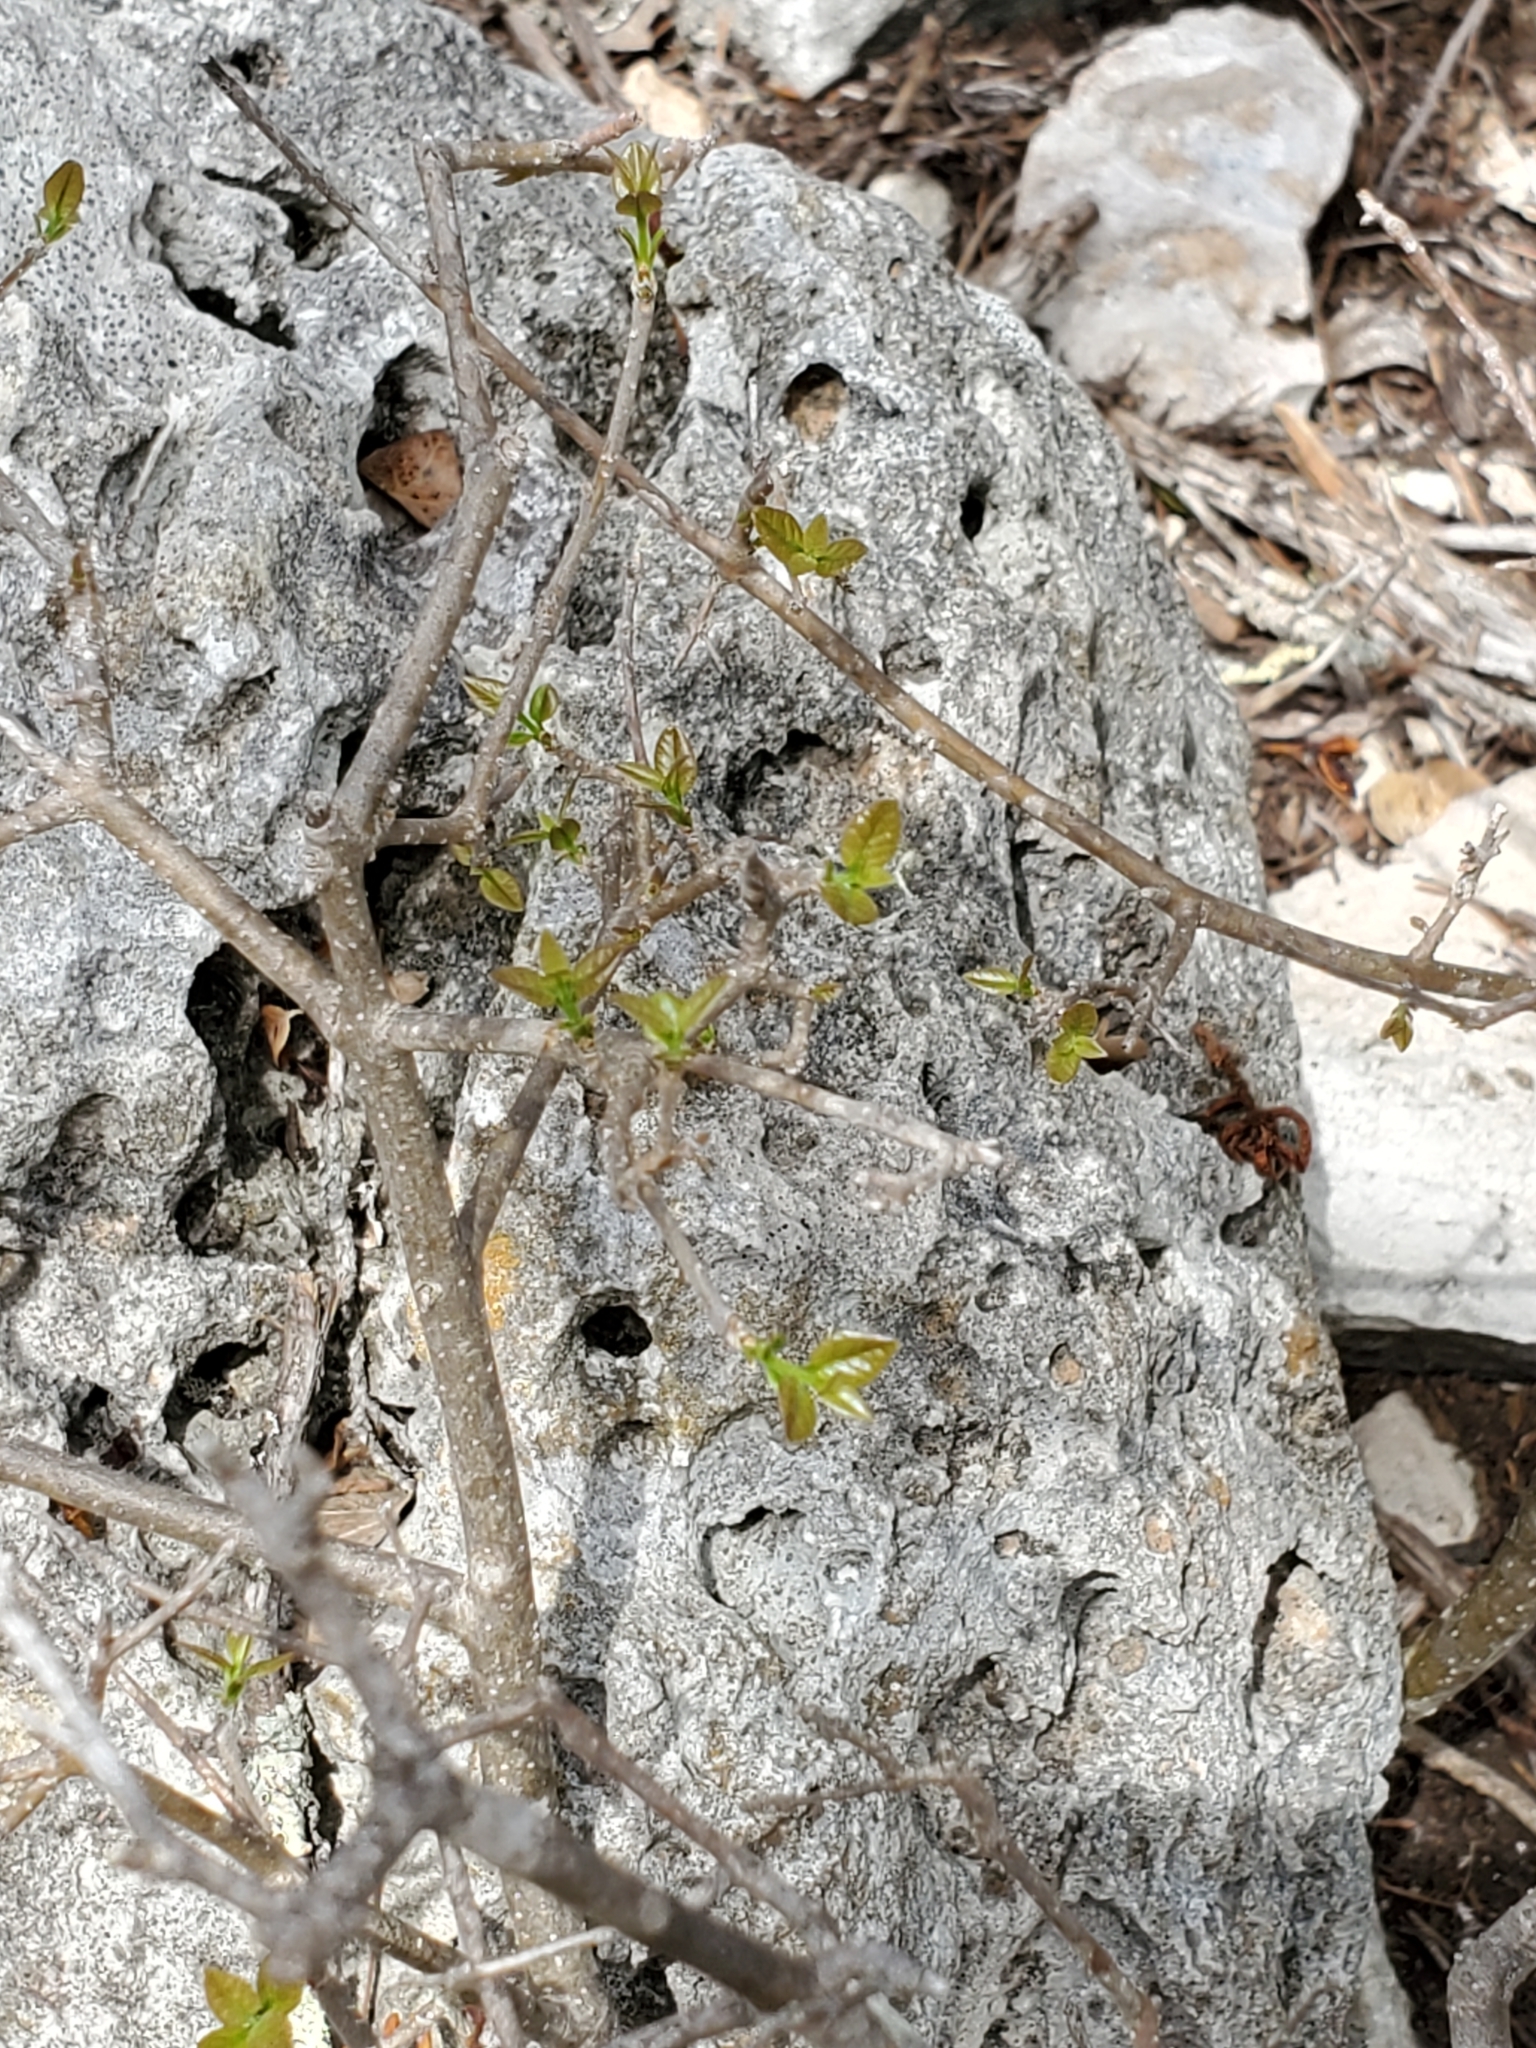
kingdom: Plantae
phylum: Tracheophyta
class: Magnoliopsida
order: Lamiales
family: Oleaceae
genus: Forestiera
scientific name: Forestiera reticulata
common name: Netleaf swamp-privet
